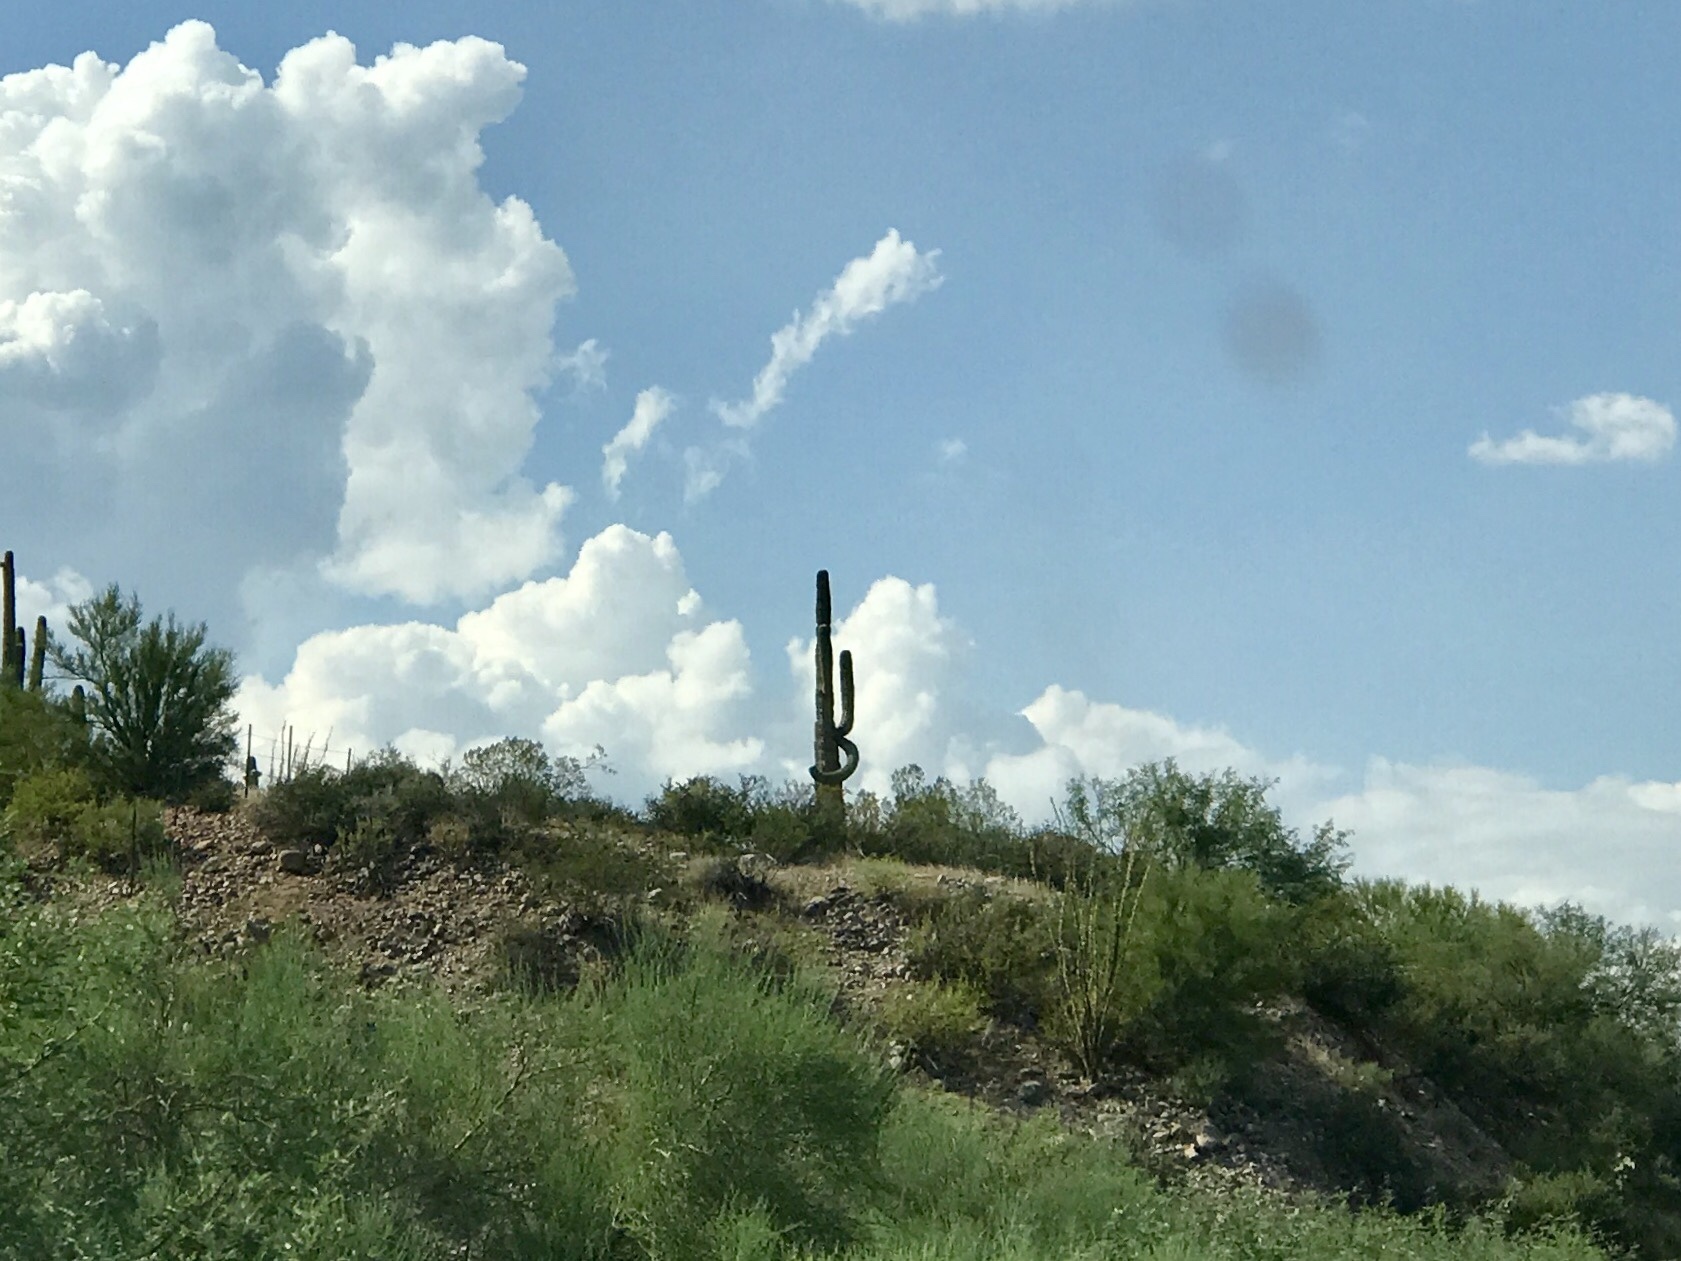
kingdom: Plantae
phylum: Tracheophyta
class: Magnoliopsida
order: Caryophyllales
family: Cactaceae
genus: Carnegiea
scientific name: Carnegiea gigantea
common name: Saguaro
